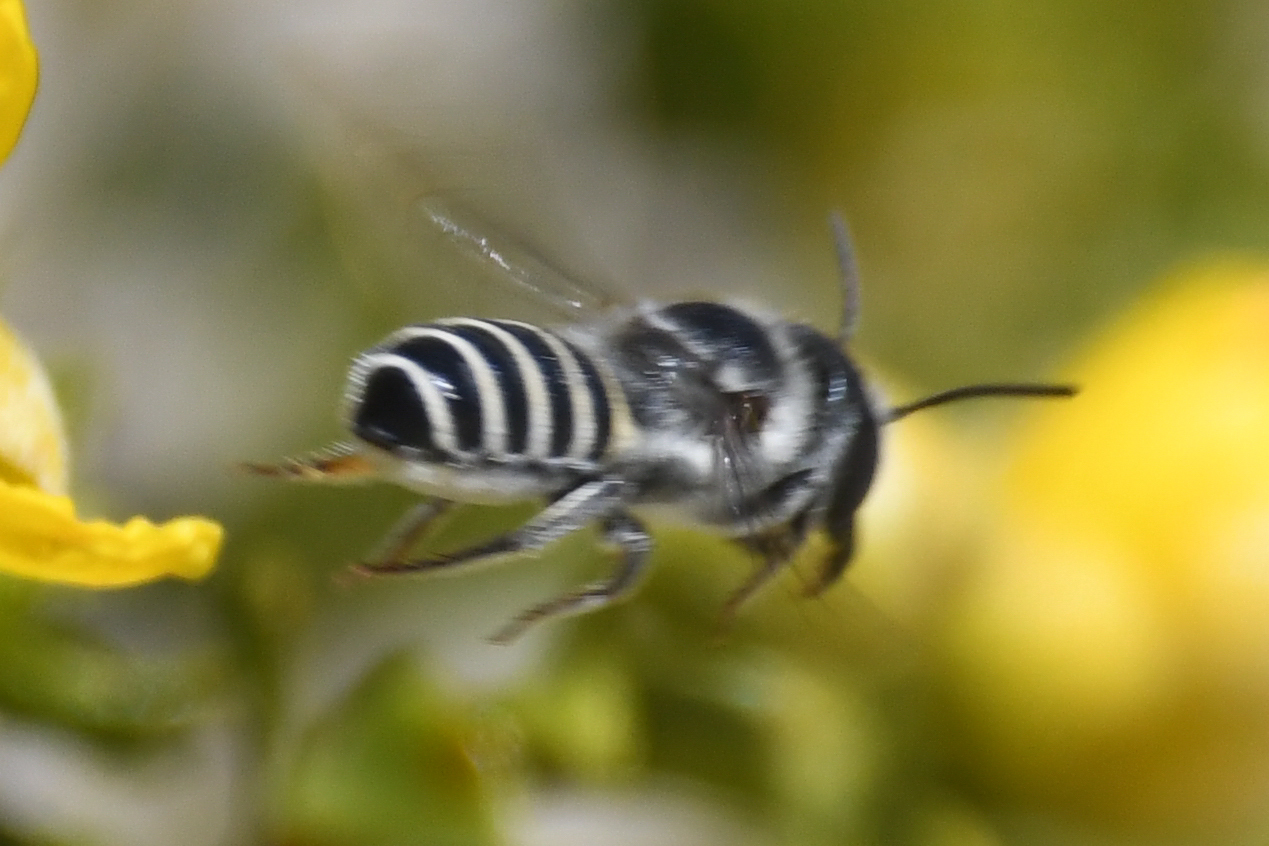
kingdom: Animalia
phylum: Arthropoda
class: Insecta
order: Hymenoptera
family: Megachilidae
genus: Megachile
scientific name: Megachile browni
